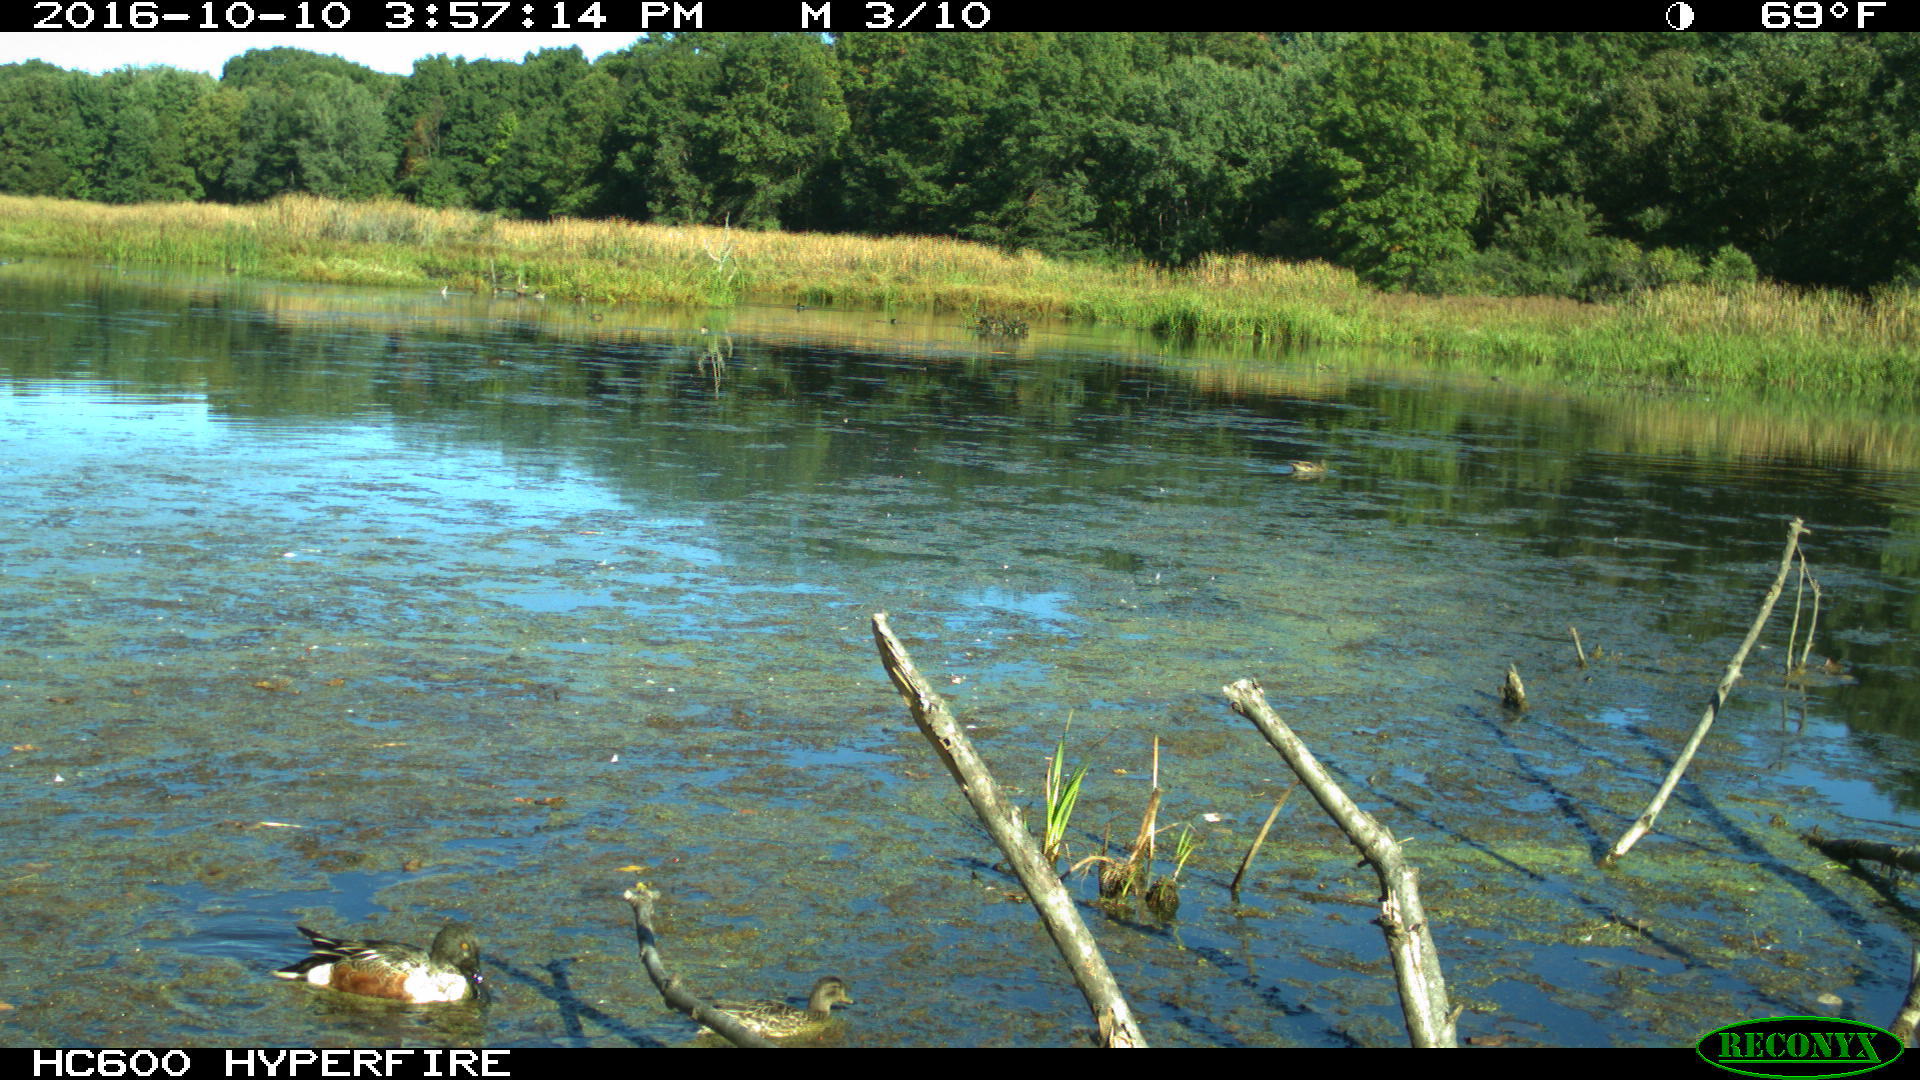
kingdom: Animalia
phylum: Chordata
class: Aves
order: Anseriformes
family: Anatidae
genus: Spatula
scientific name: Spatula clypeata
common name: Northern shoveler
